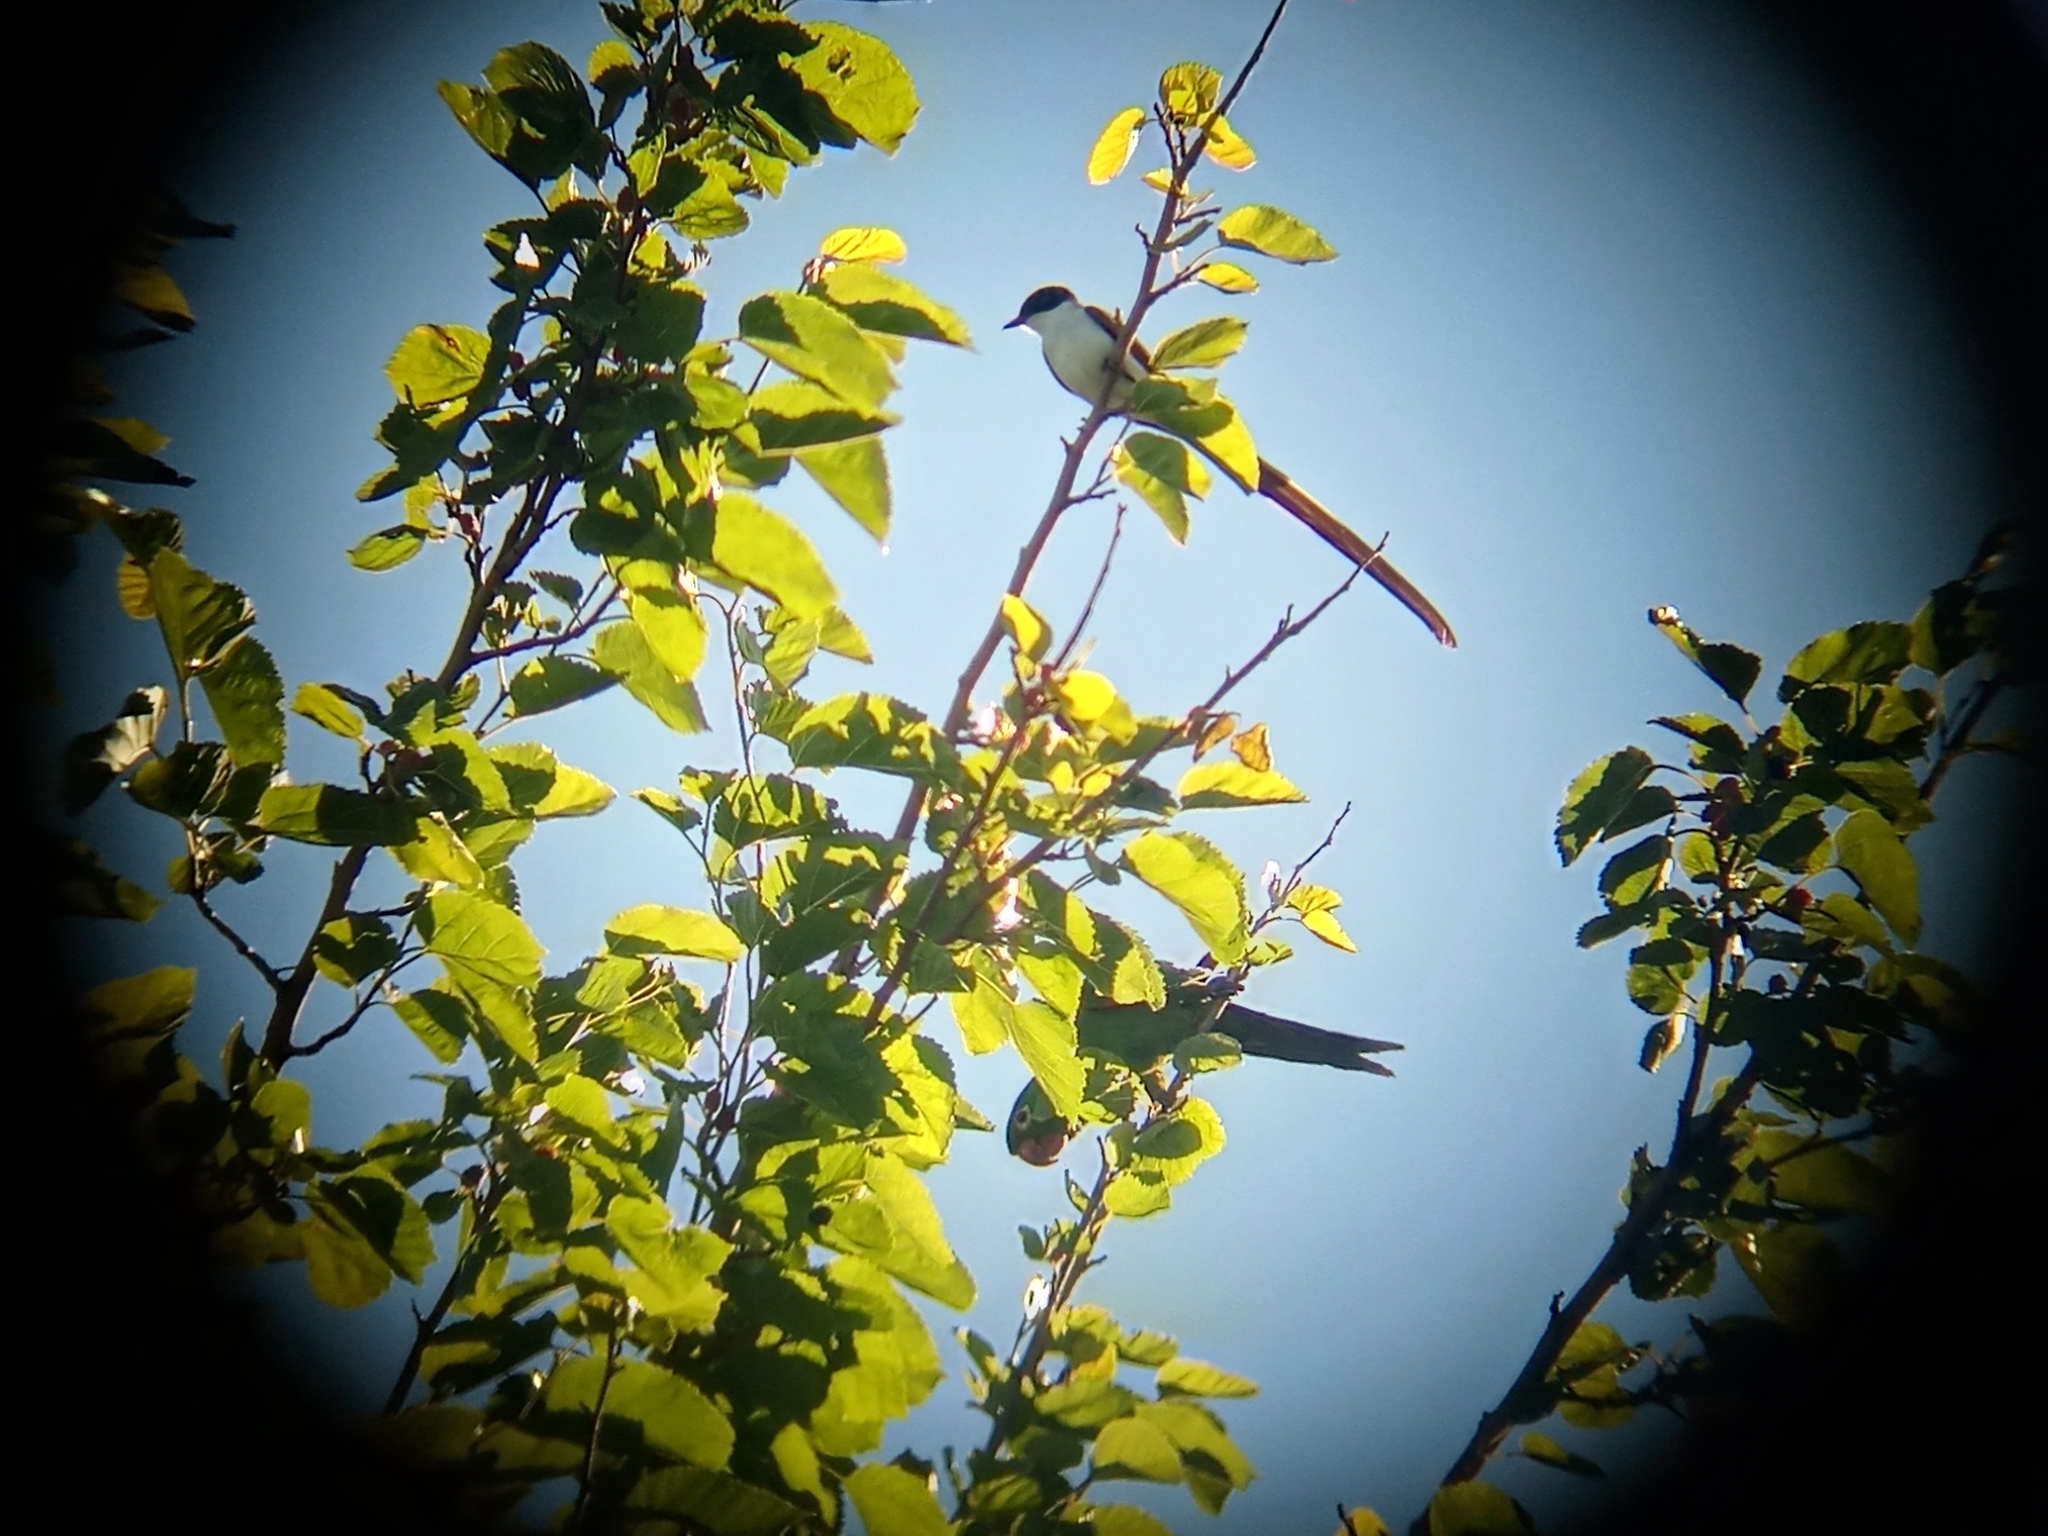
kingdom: Animalia
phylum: Chordata
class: Aves
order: Passeriformes
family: Tyrannidae
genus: Tyrannus
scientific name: Tyrannus savana
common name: Fork-tailed flycatcher
